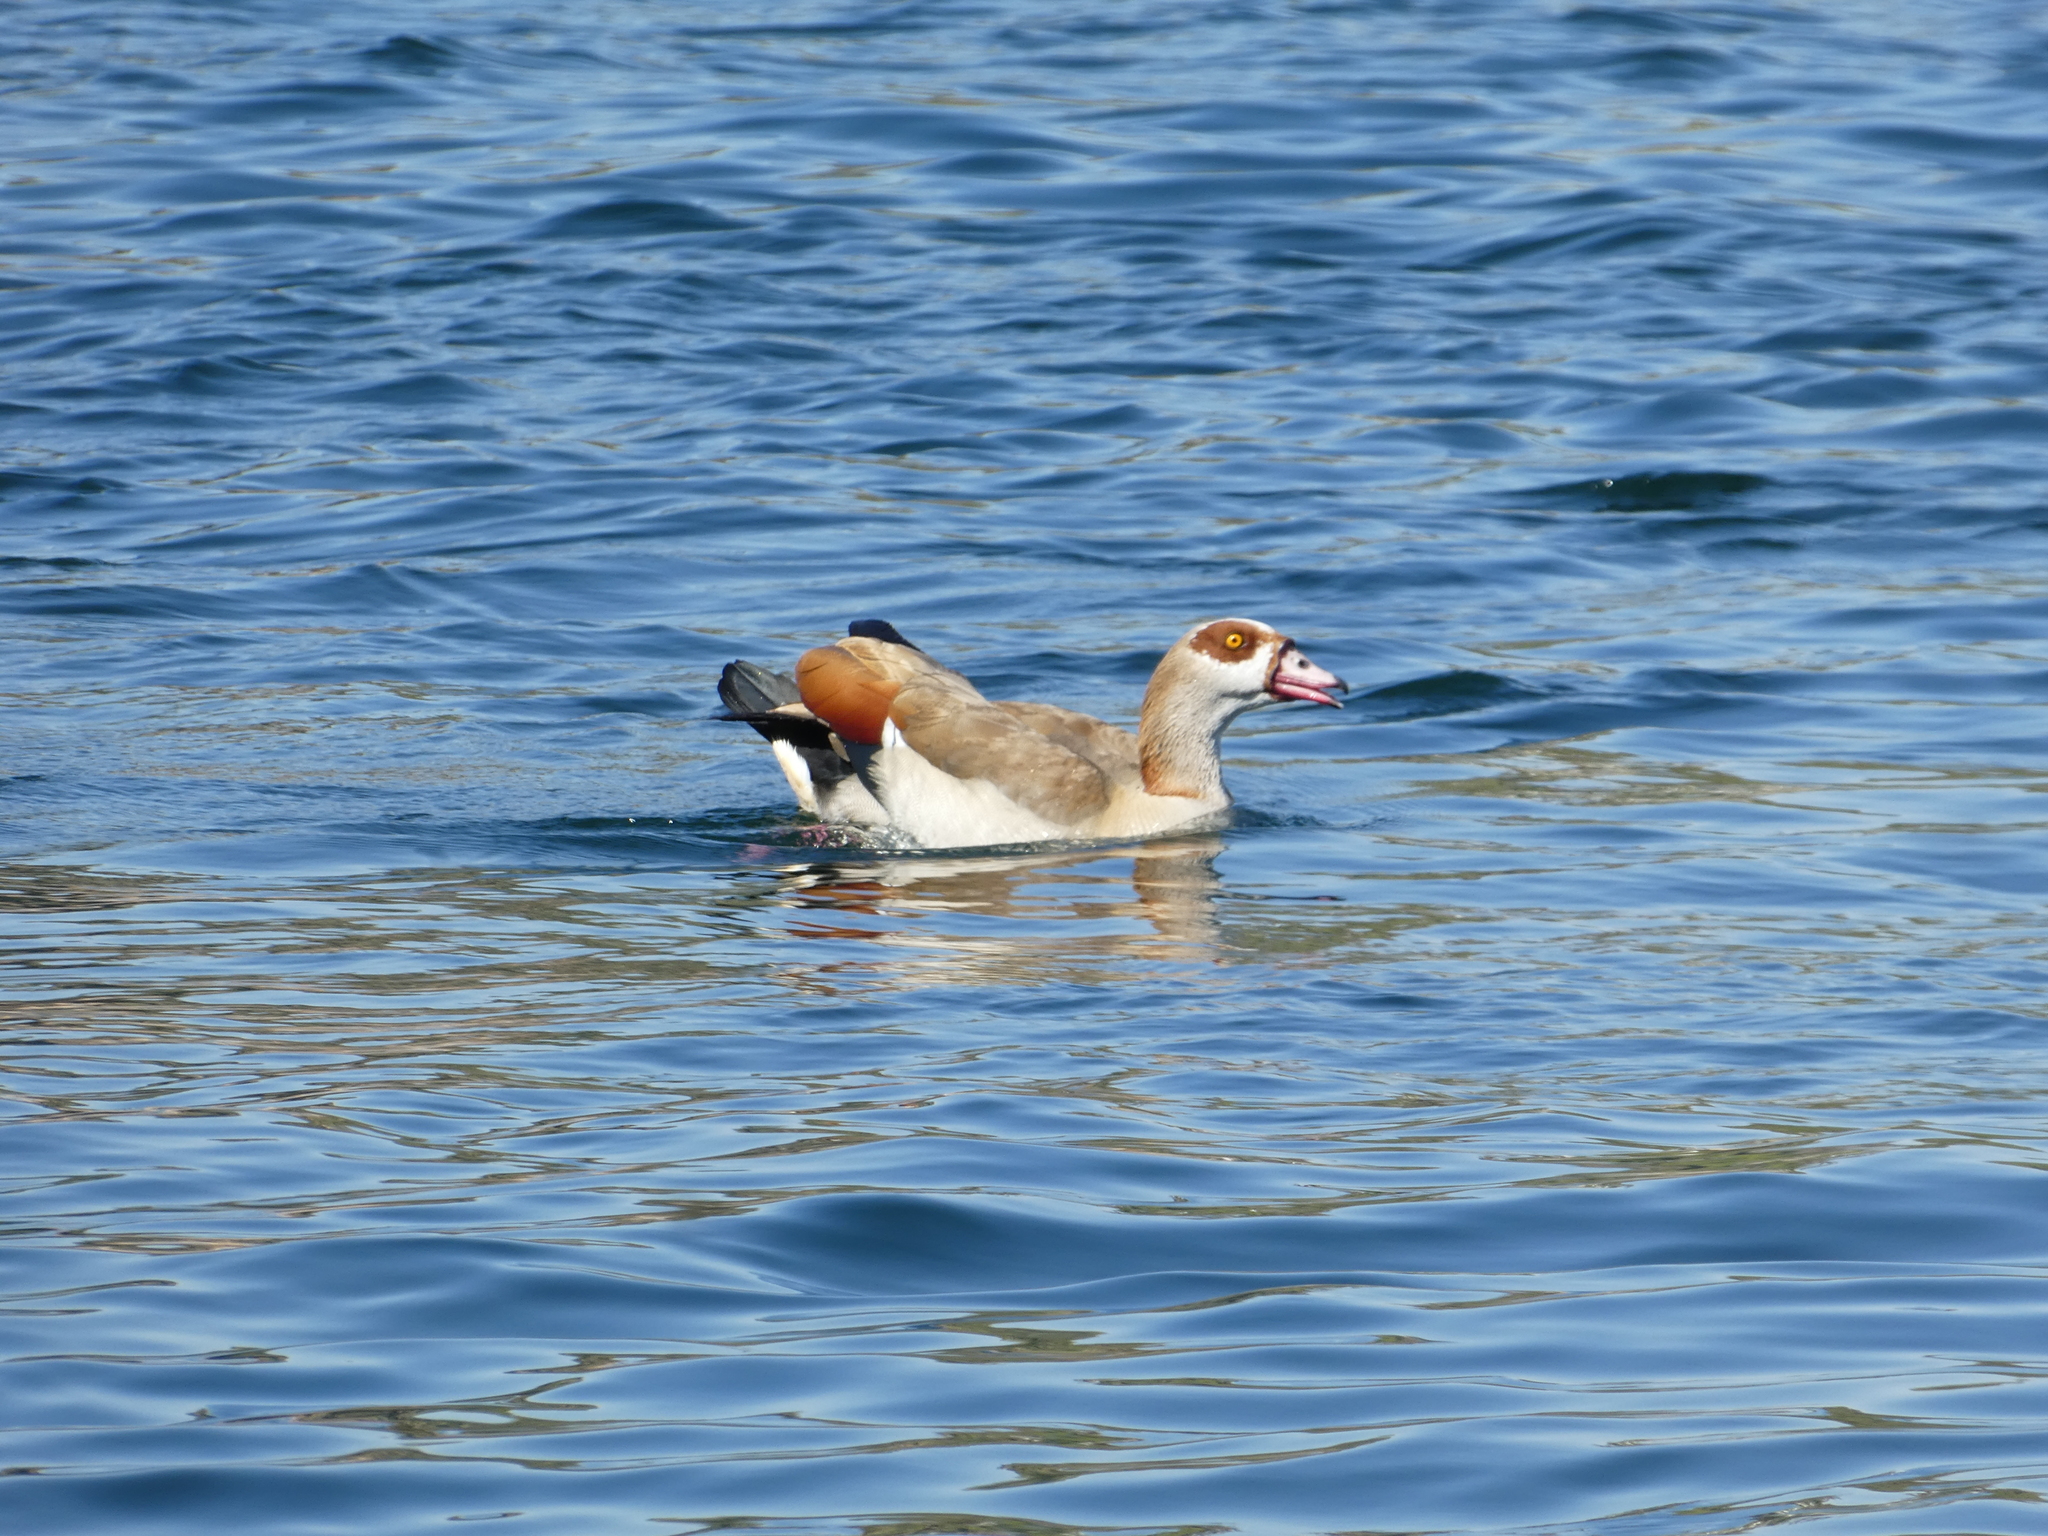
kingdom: Animalia
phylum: Chordata
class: Aves
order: Anseriformes
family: Anatidae
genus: Alopochen
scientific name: Alopochen aegyptiaca
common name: Egyptian goose
